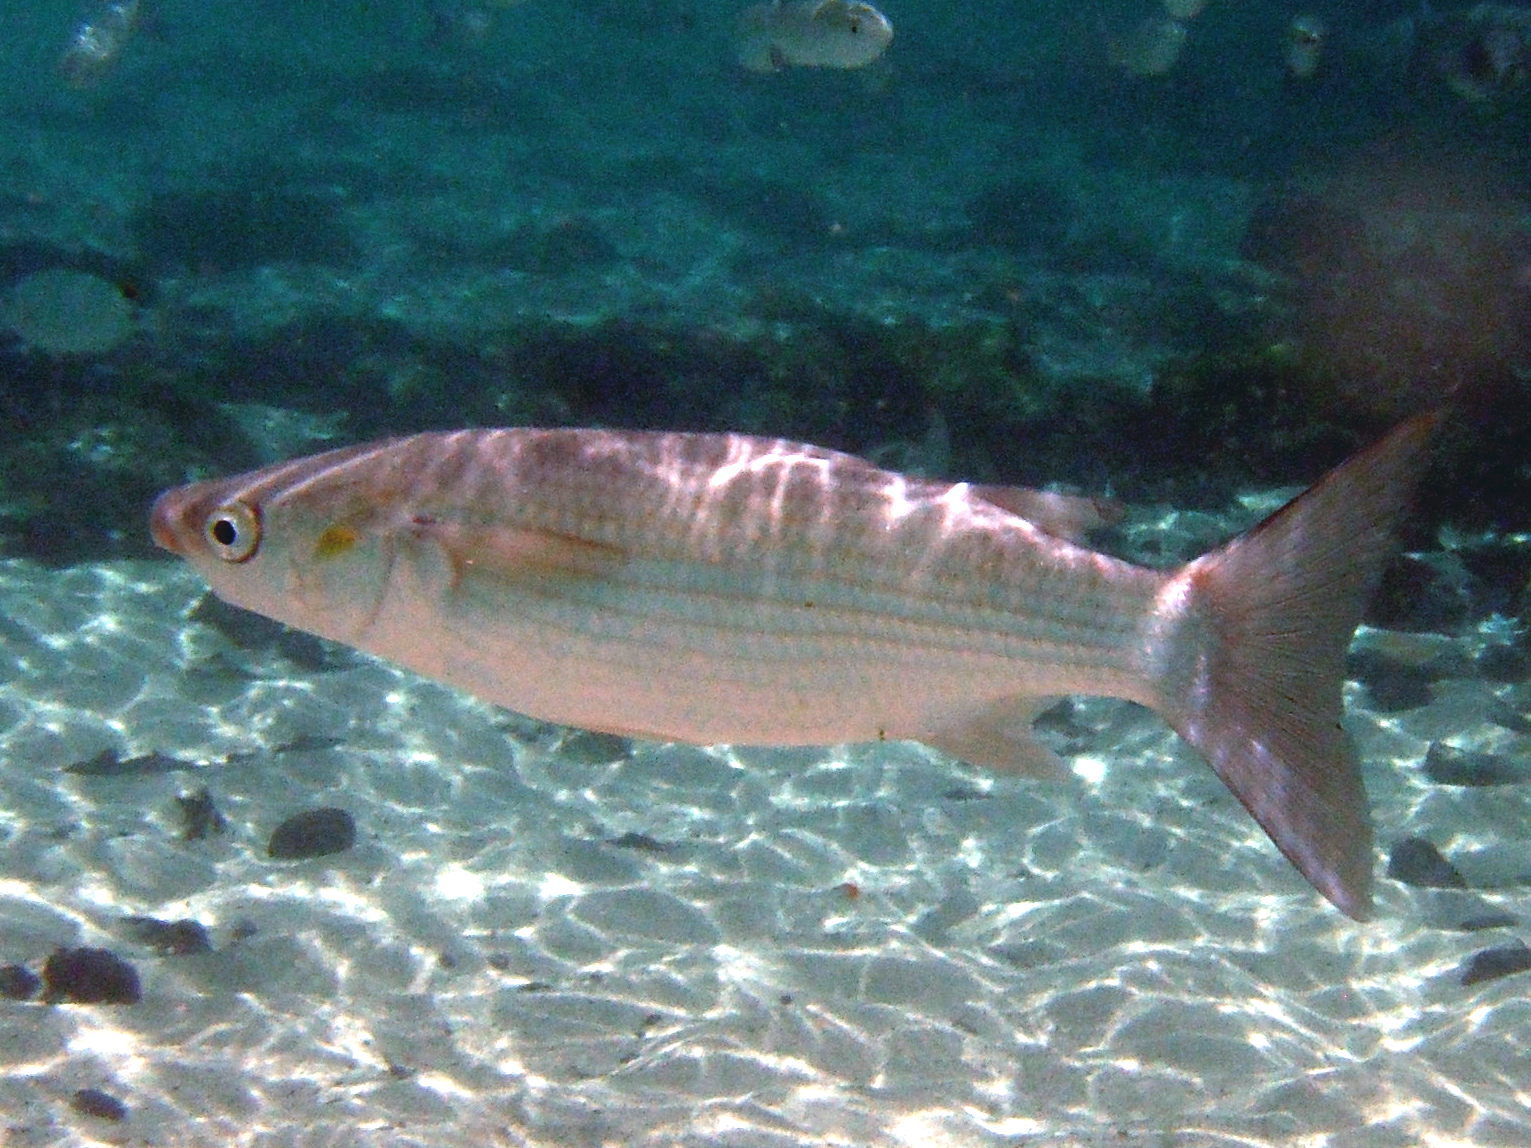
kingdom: Animalia
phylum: Chordata
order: Mugiliformes
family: Mugilidae
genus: Chelon
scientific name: Chelon labrosus
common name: Thick-lipped mullet
